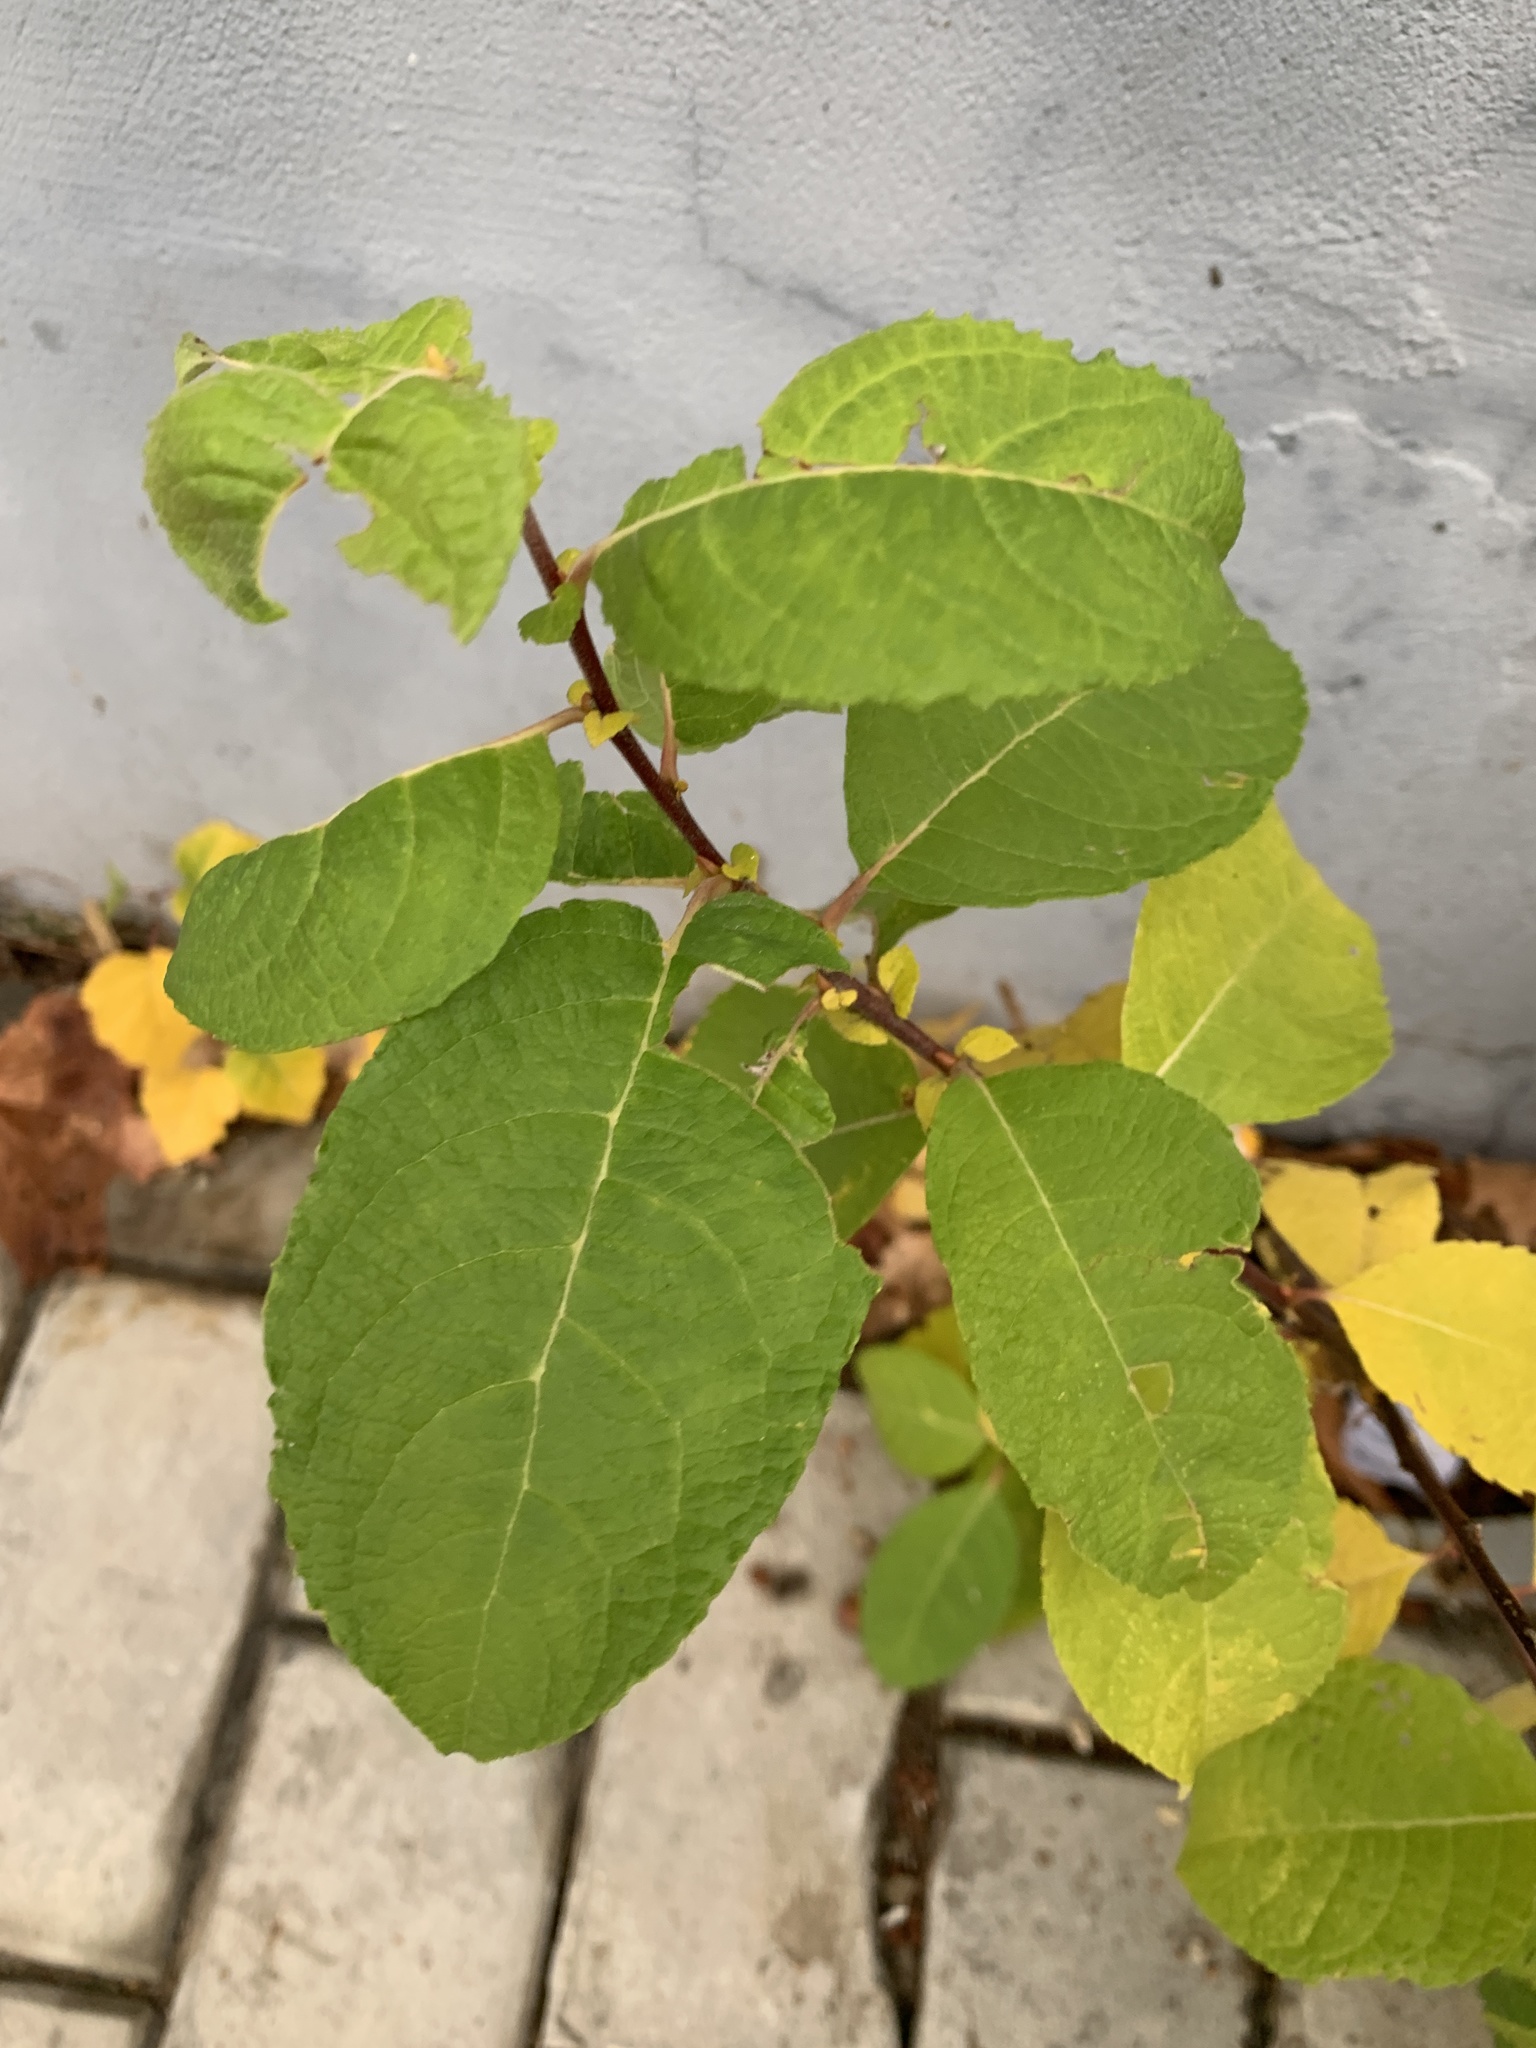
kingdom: Plantae
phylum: Tracheophyta
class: Magnoliopsida
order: Malpighiales
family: Salicaceae
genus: Salix
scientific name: Salix caprea
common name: Goat willow
